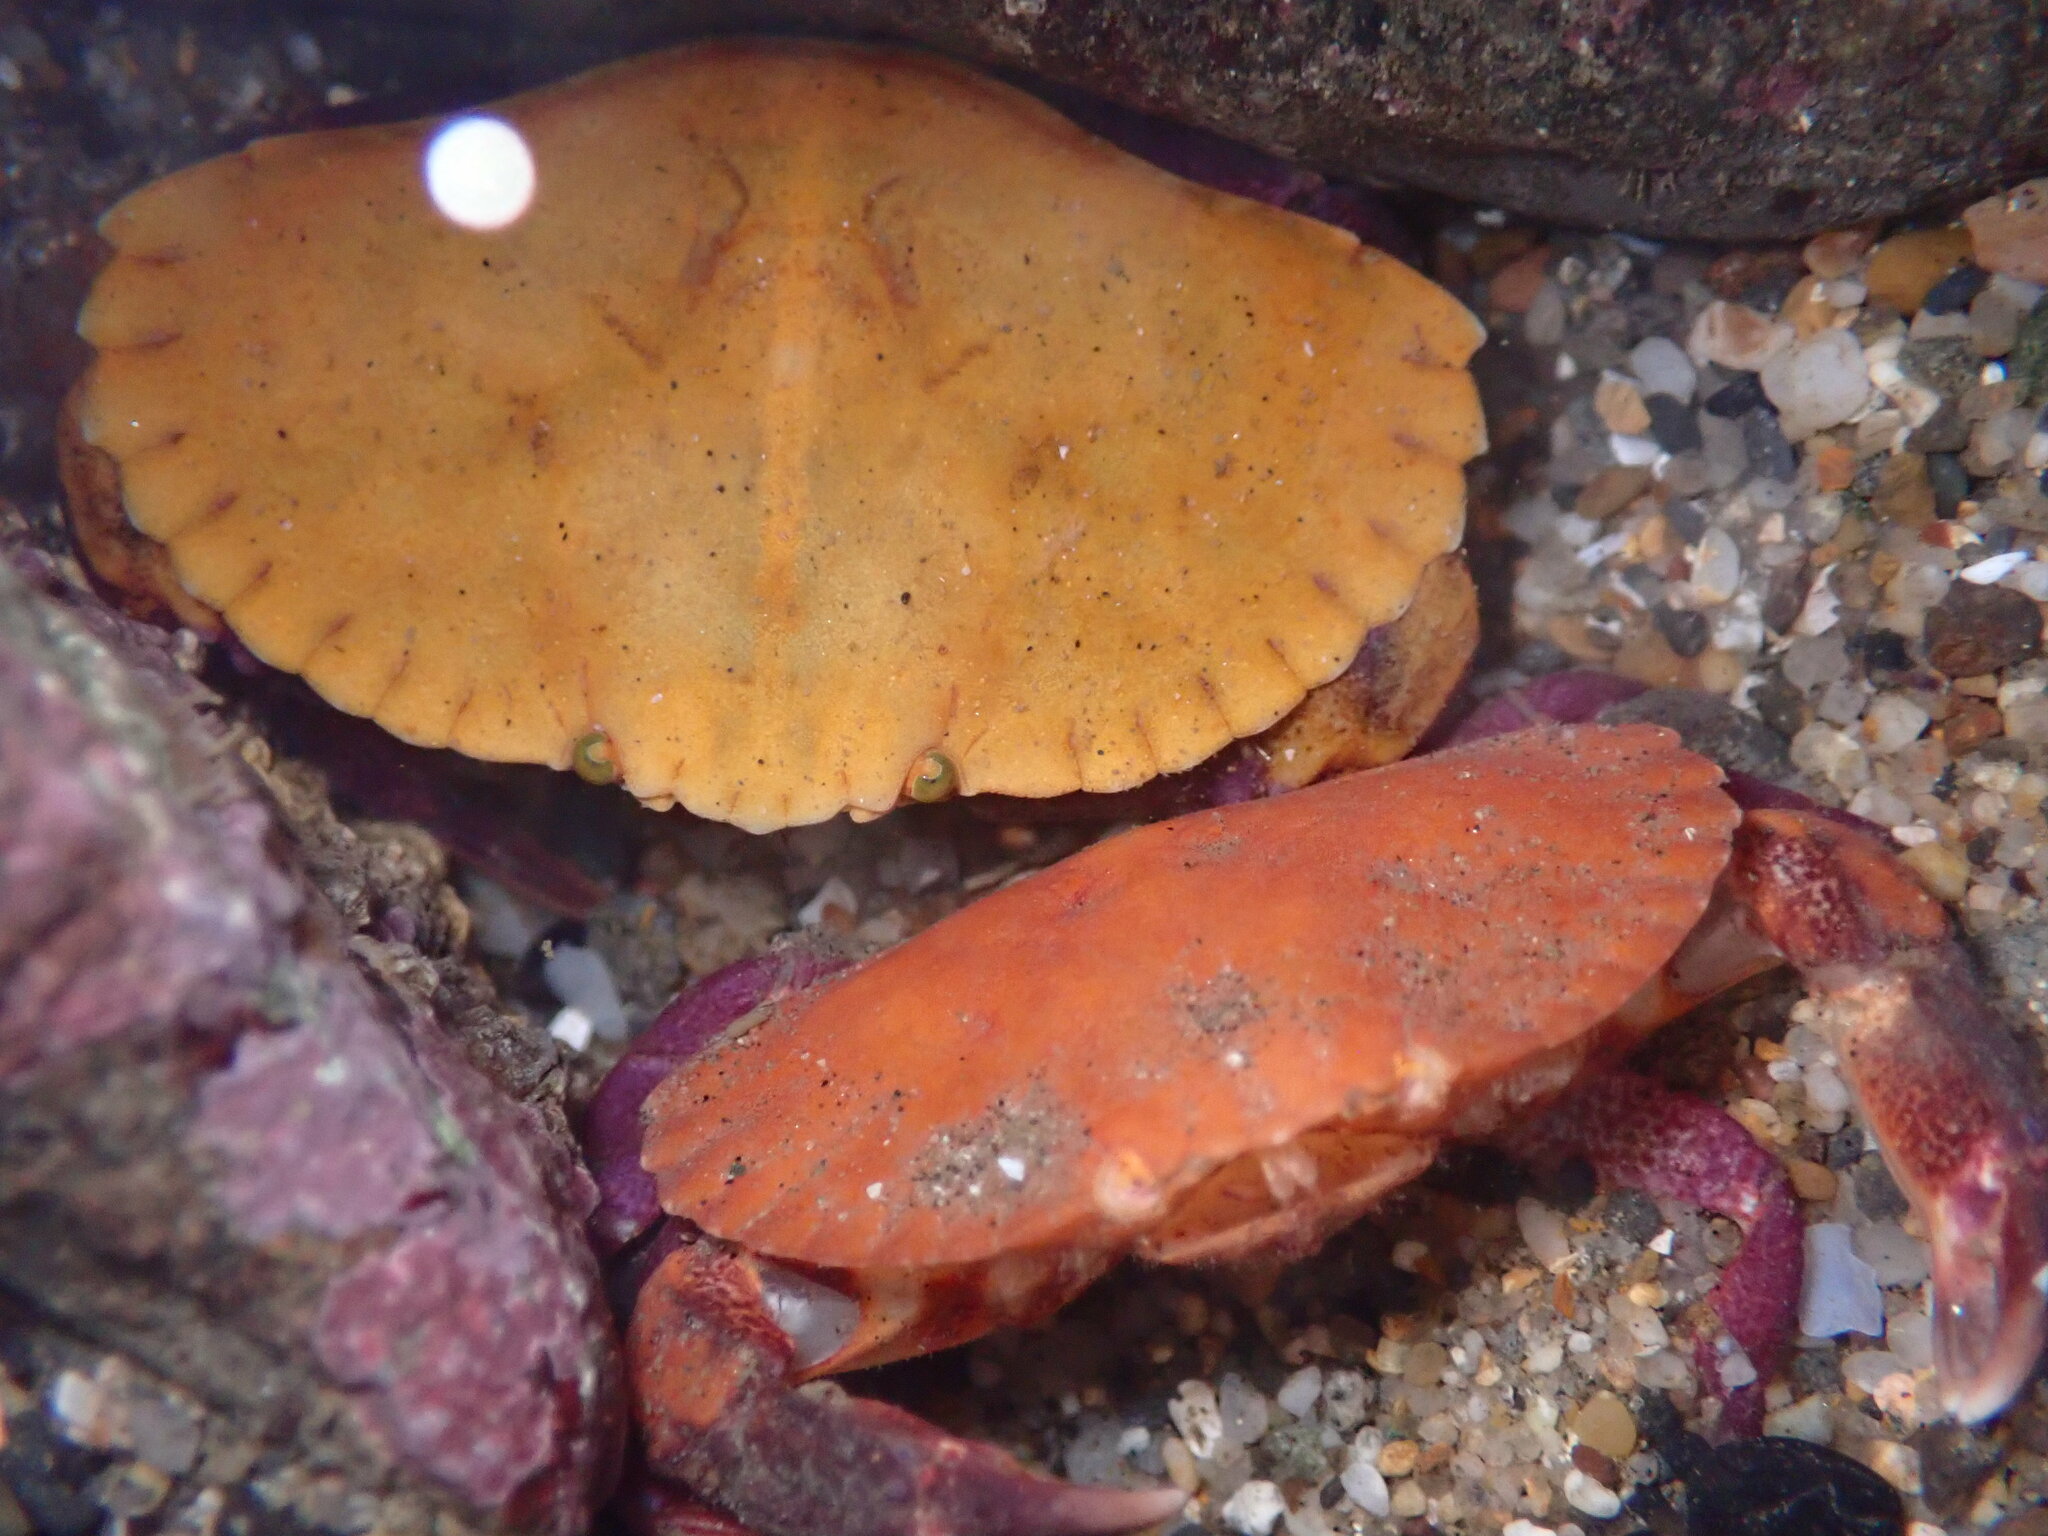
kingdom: Animalia
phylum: Arthropoda
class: Malacostraca
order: Decapoda
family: Cancridae
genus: Cancer
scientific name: Cancer productus
